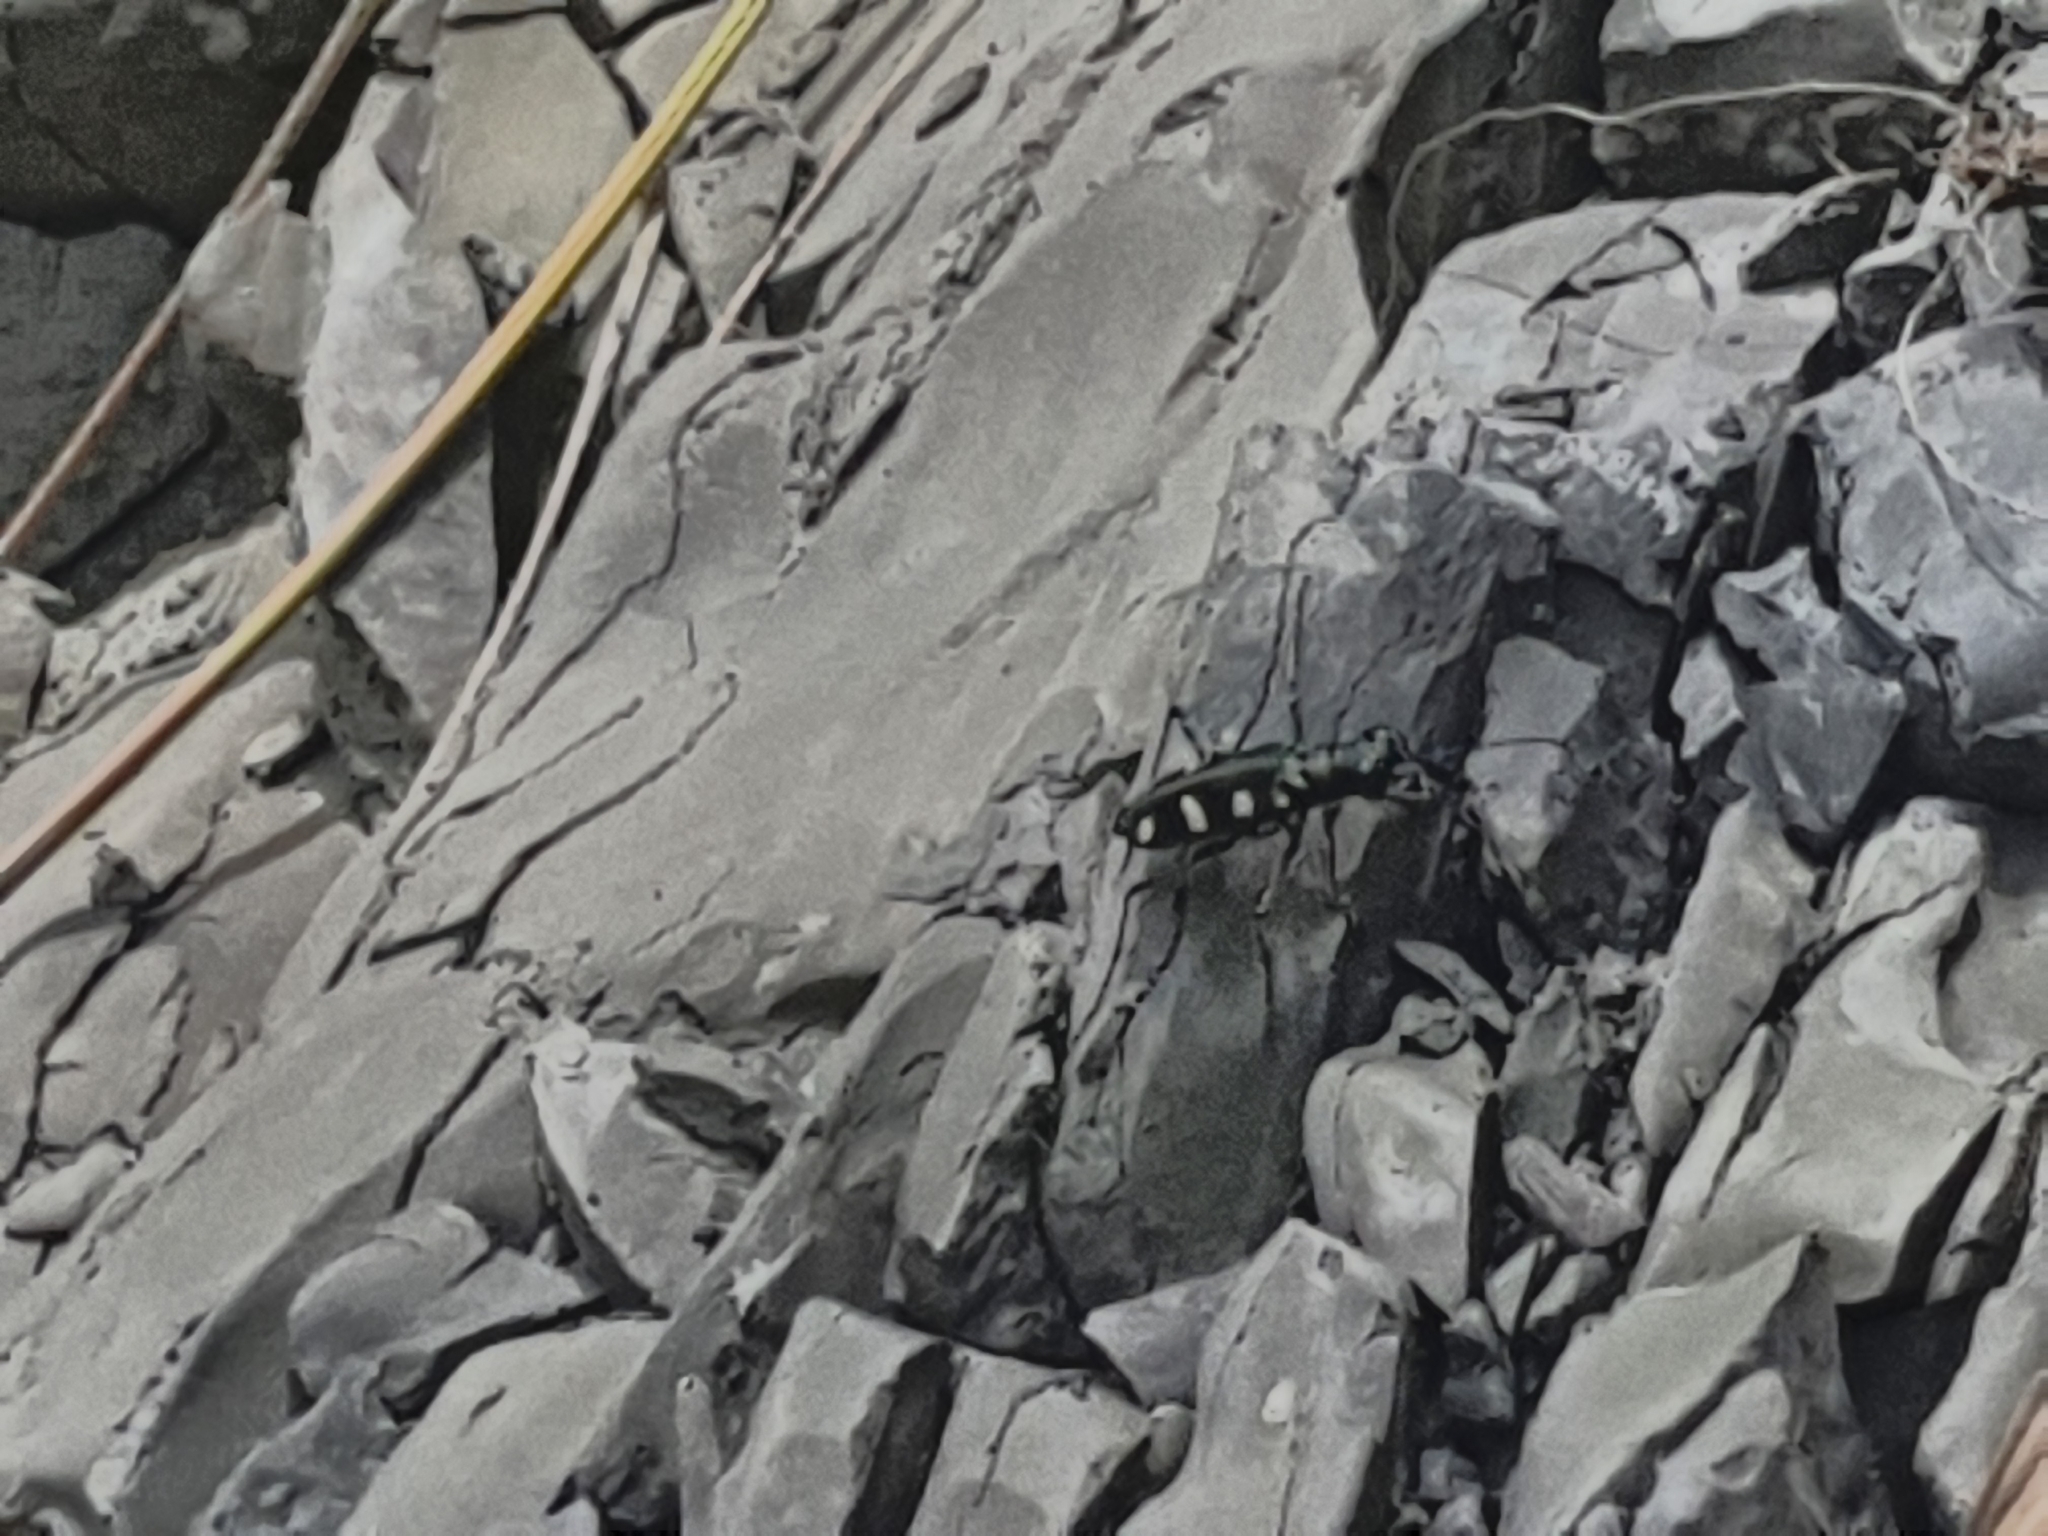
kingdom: Animalia
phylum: Arthropoda
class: Insecta
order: Coleoptera
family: Carabidae
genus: Cicindela
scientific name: Cicindela batesi
